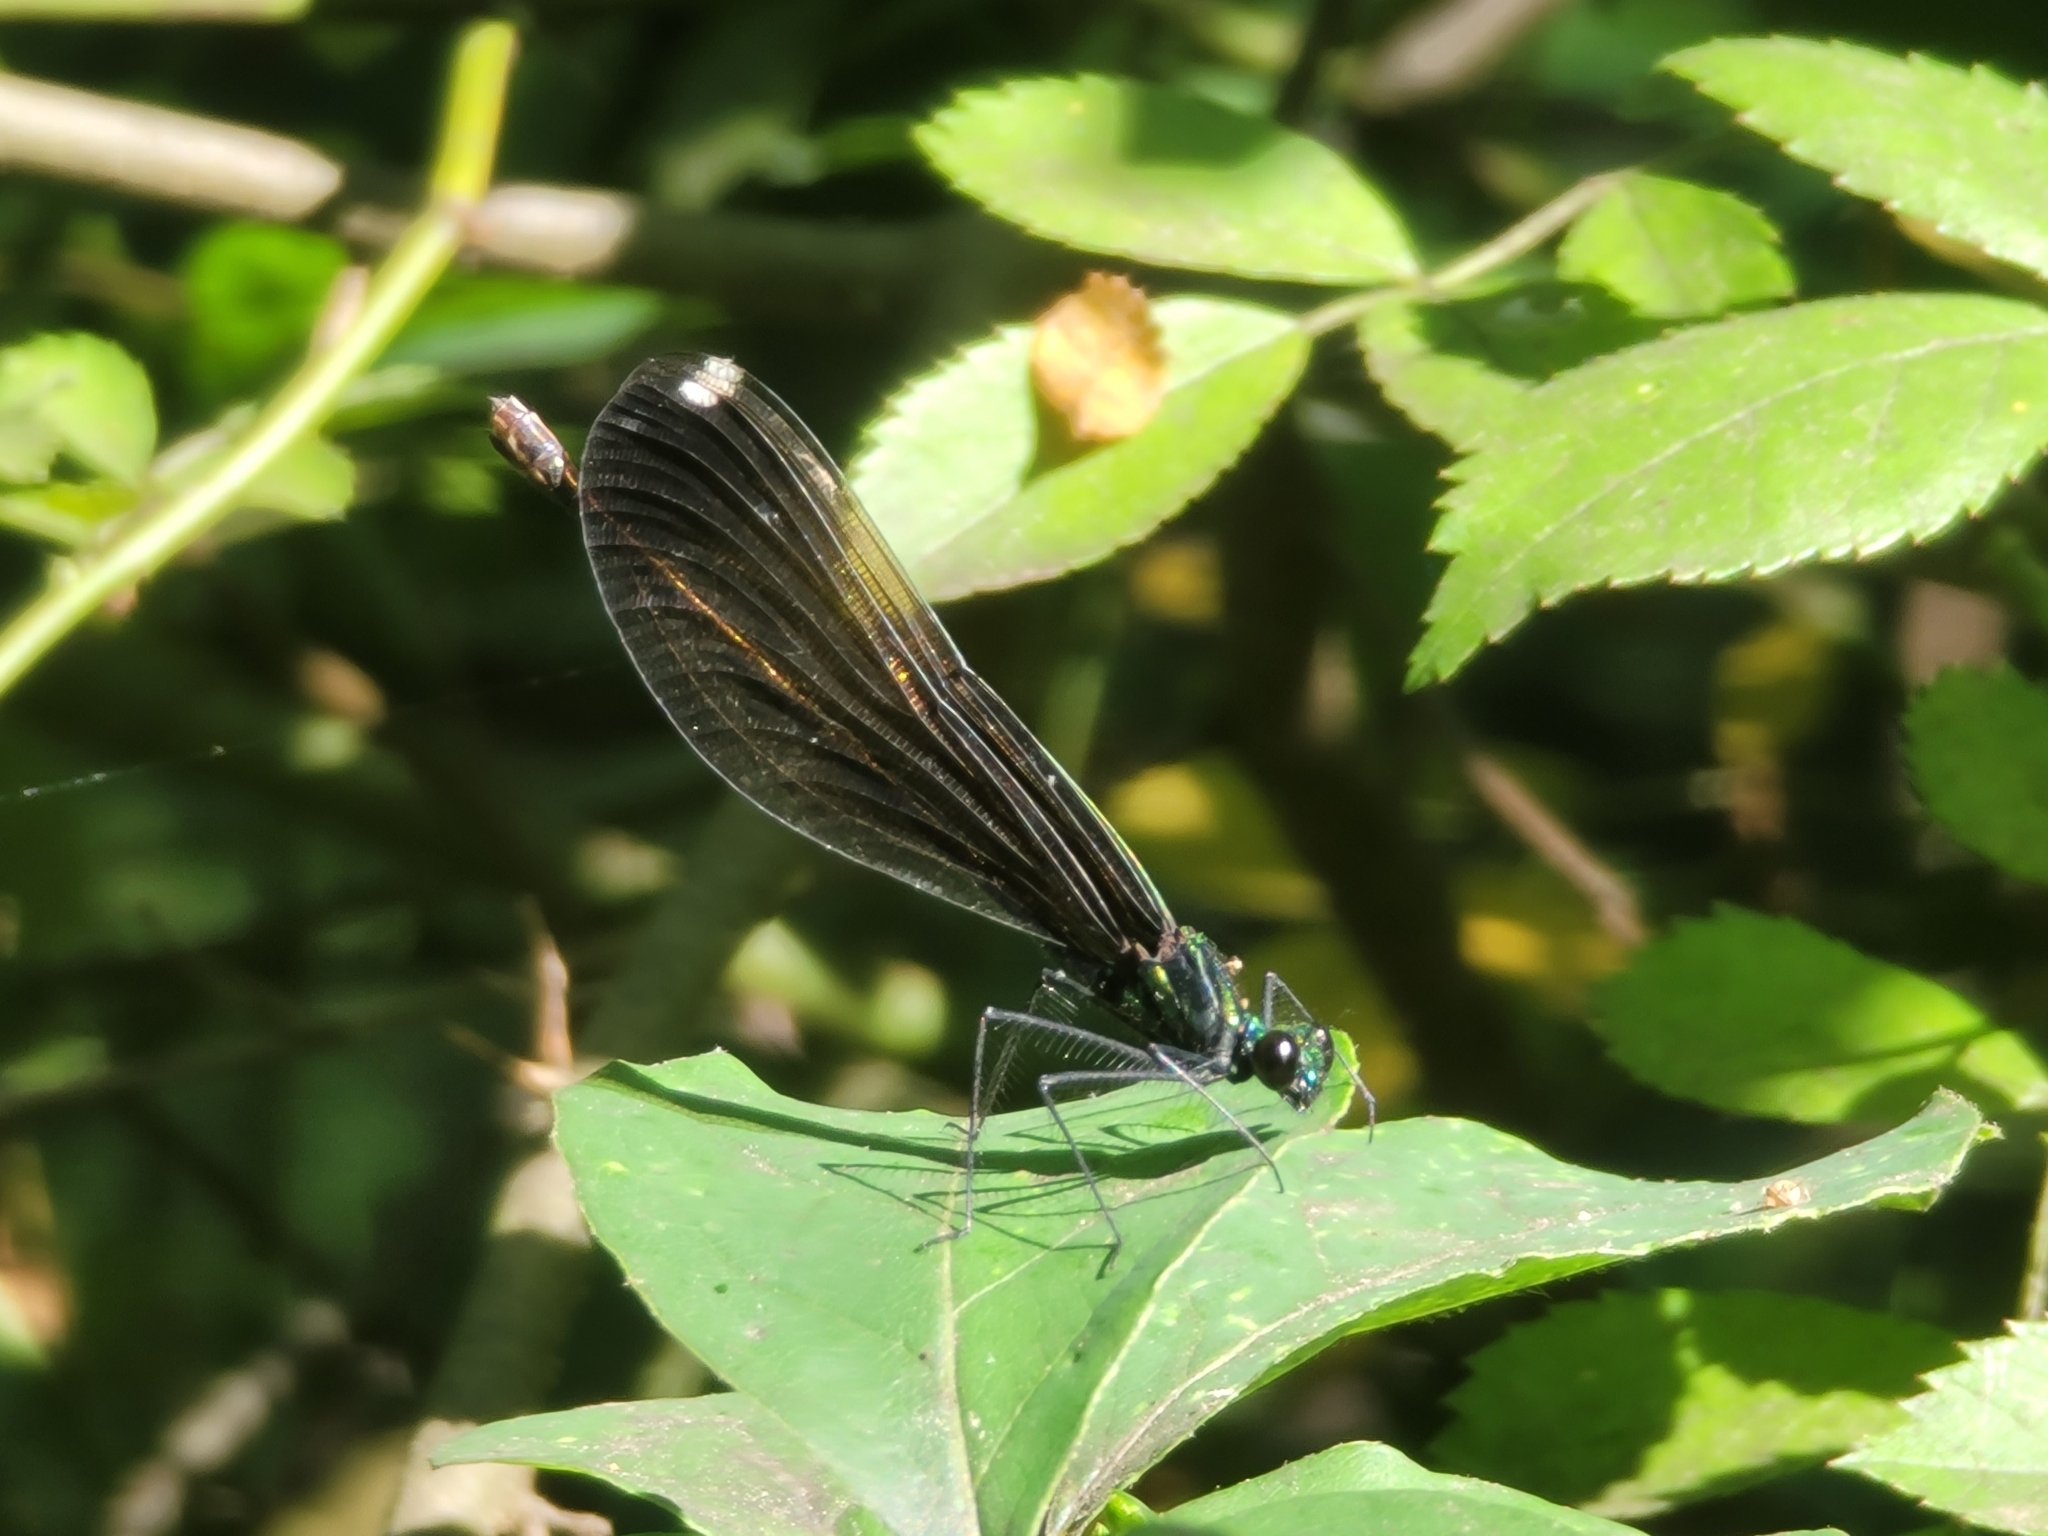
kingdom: Animalia
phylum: Arthropoda
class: Insecta
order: Odonata
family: Calopterygidae
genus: Calopteryx
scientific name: Calopteryx maculata
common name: Ebony jewelwing
